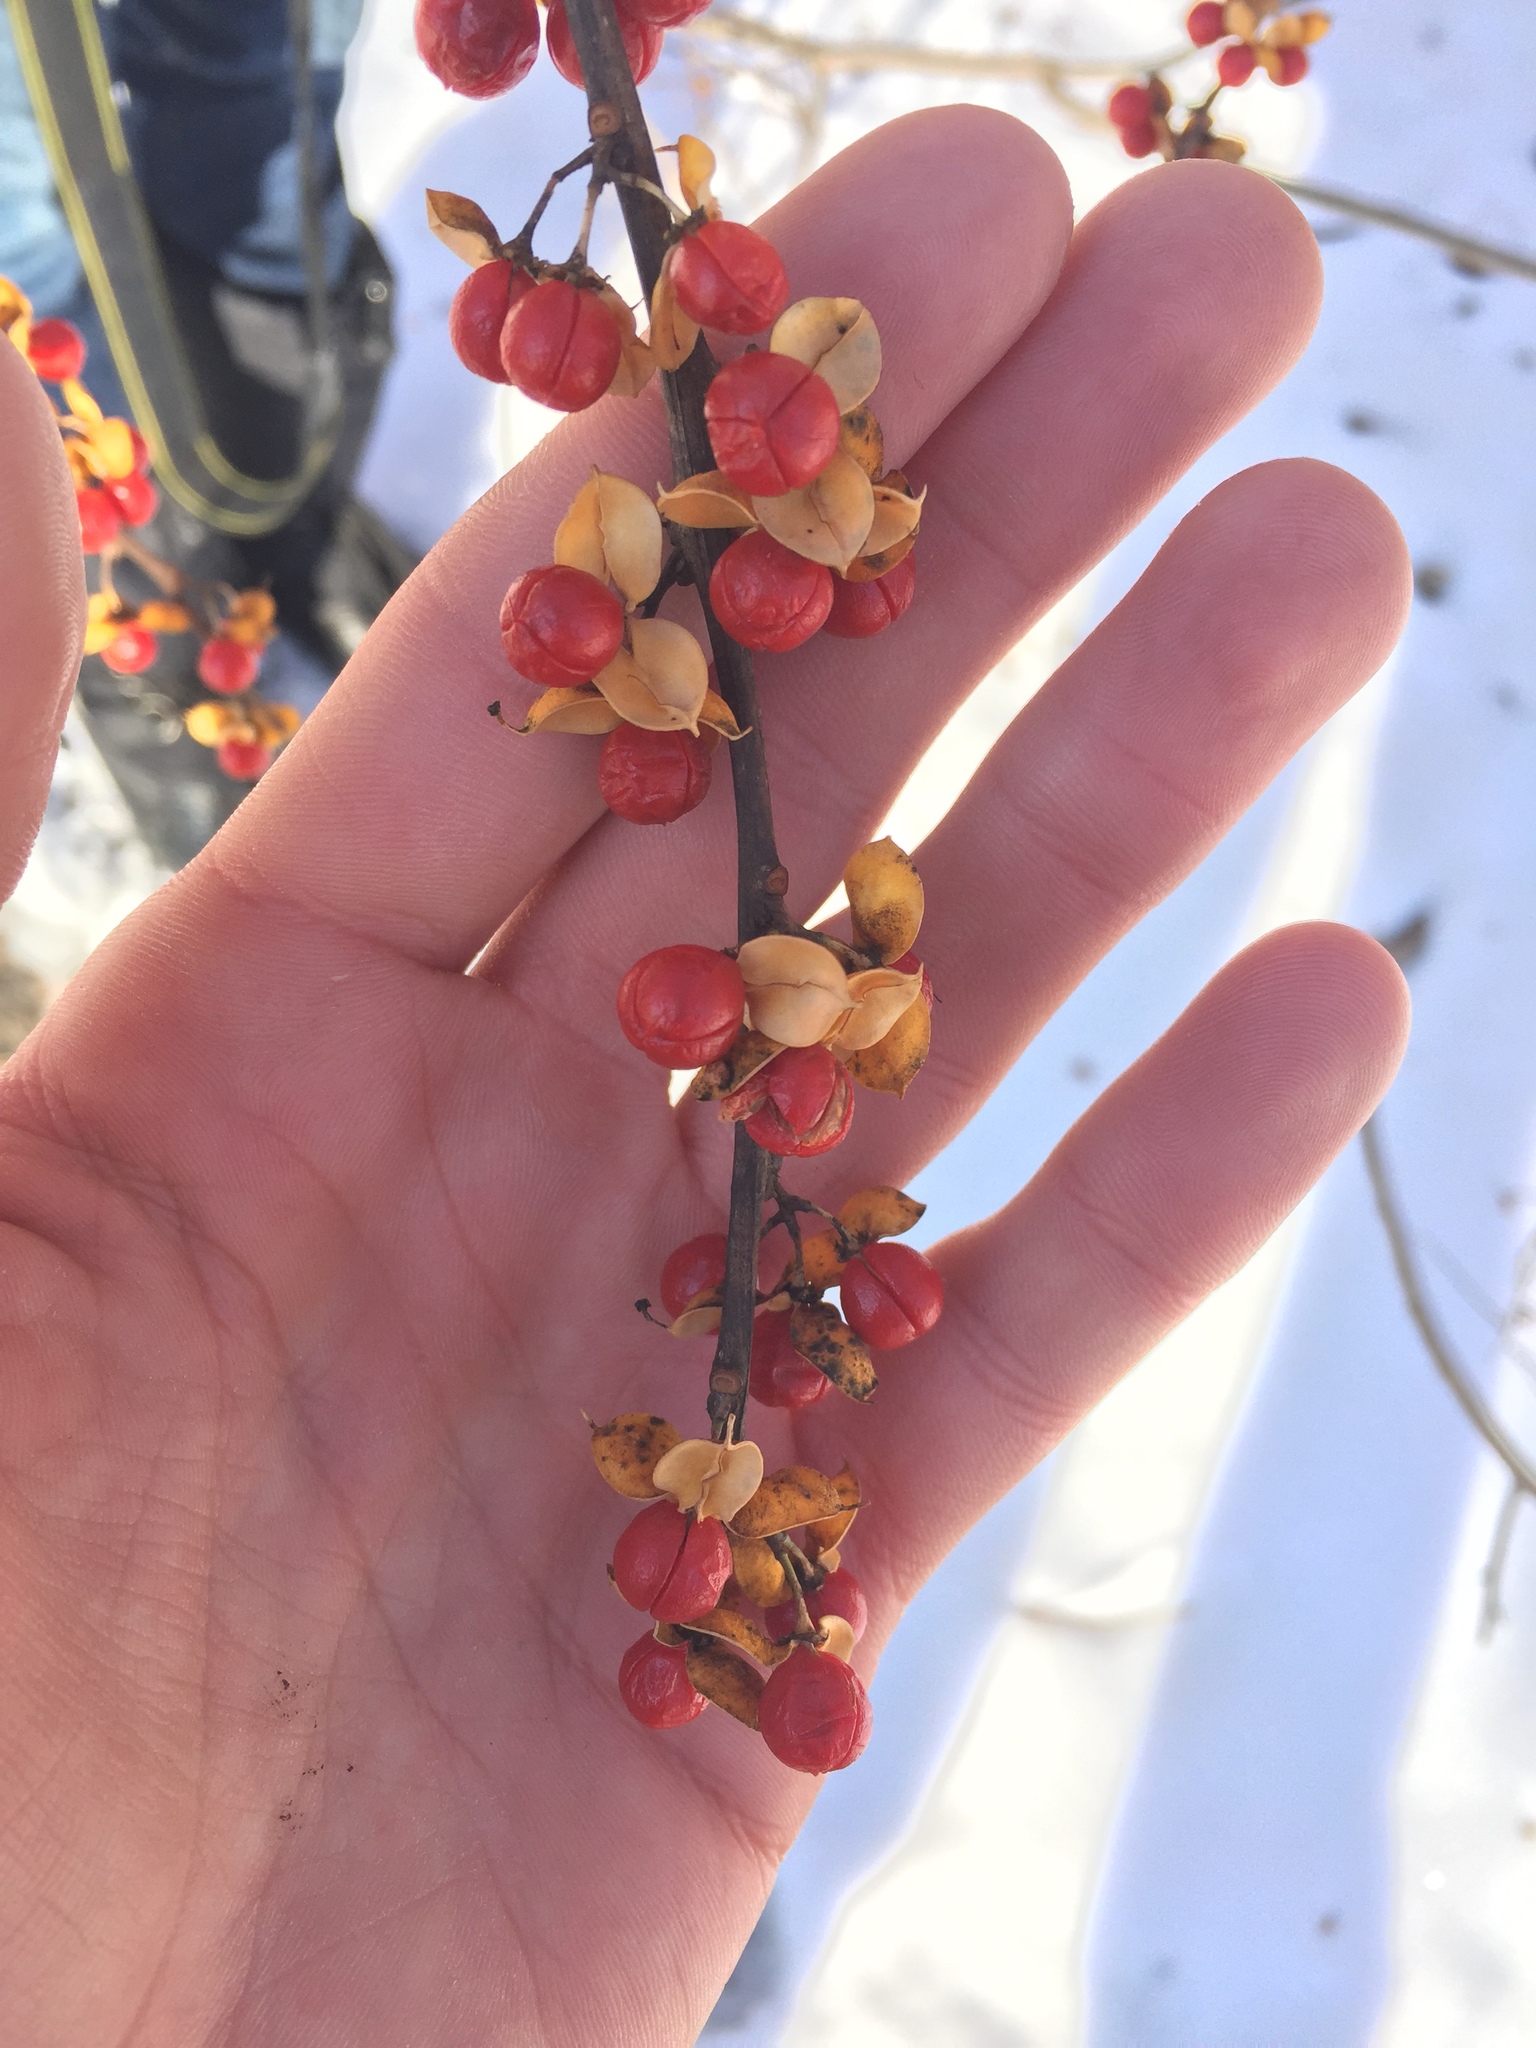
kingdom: Plantae
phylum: Tracheophyta
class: Magnoliopsida
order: Celastrales
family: Celastraceae
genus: Celastrus
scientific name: Celastrus orbiculatus
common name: Oriental bittersweet
